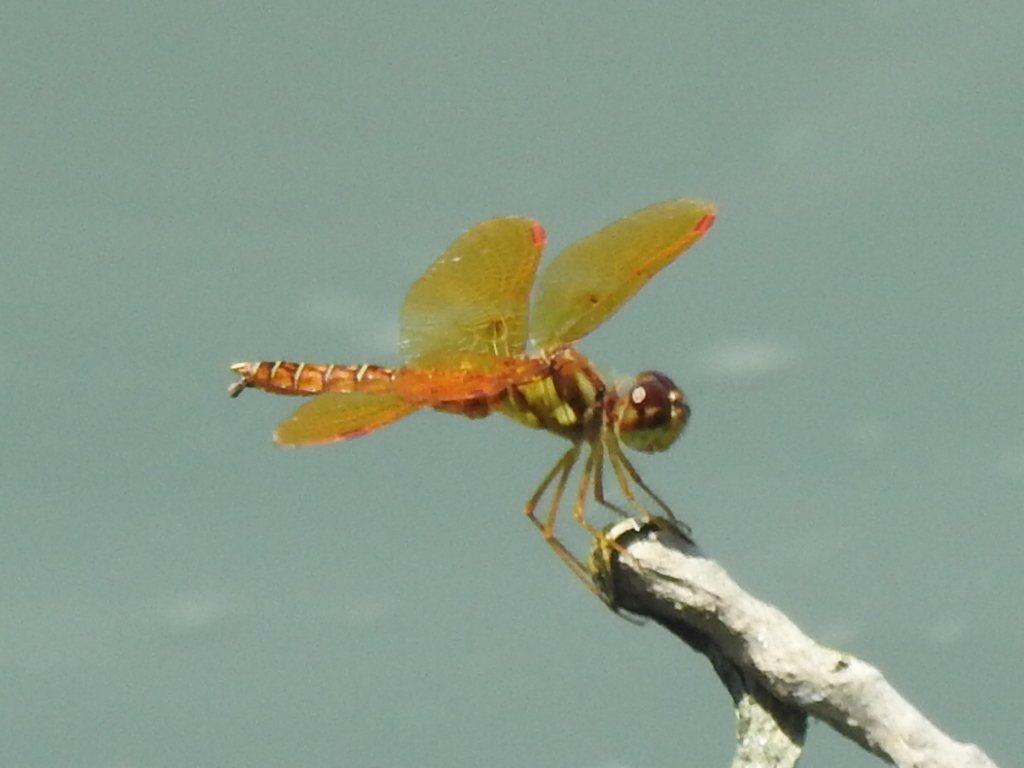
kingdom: Animalia
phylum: Arthropoda
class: Insecta
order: Odonata
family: Libellulidae
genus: Perithemis
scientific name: Perithemis tenera
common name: Eastern amberwing
